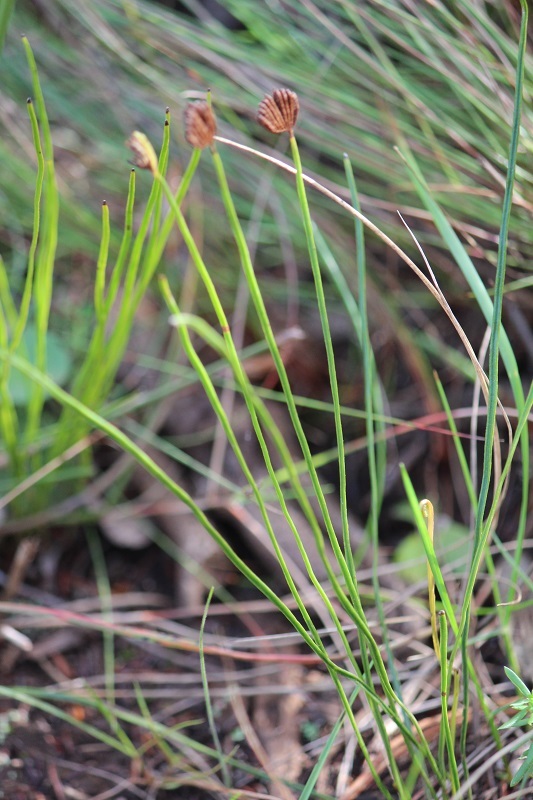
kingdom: Plantae
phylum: Tracheophyta
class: Polypodiopsida
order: Schizaeales
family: Schizaeaceae
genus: Schizaea
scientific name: Schizaea pectinata
